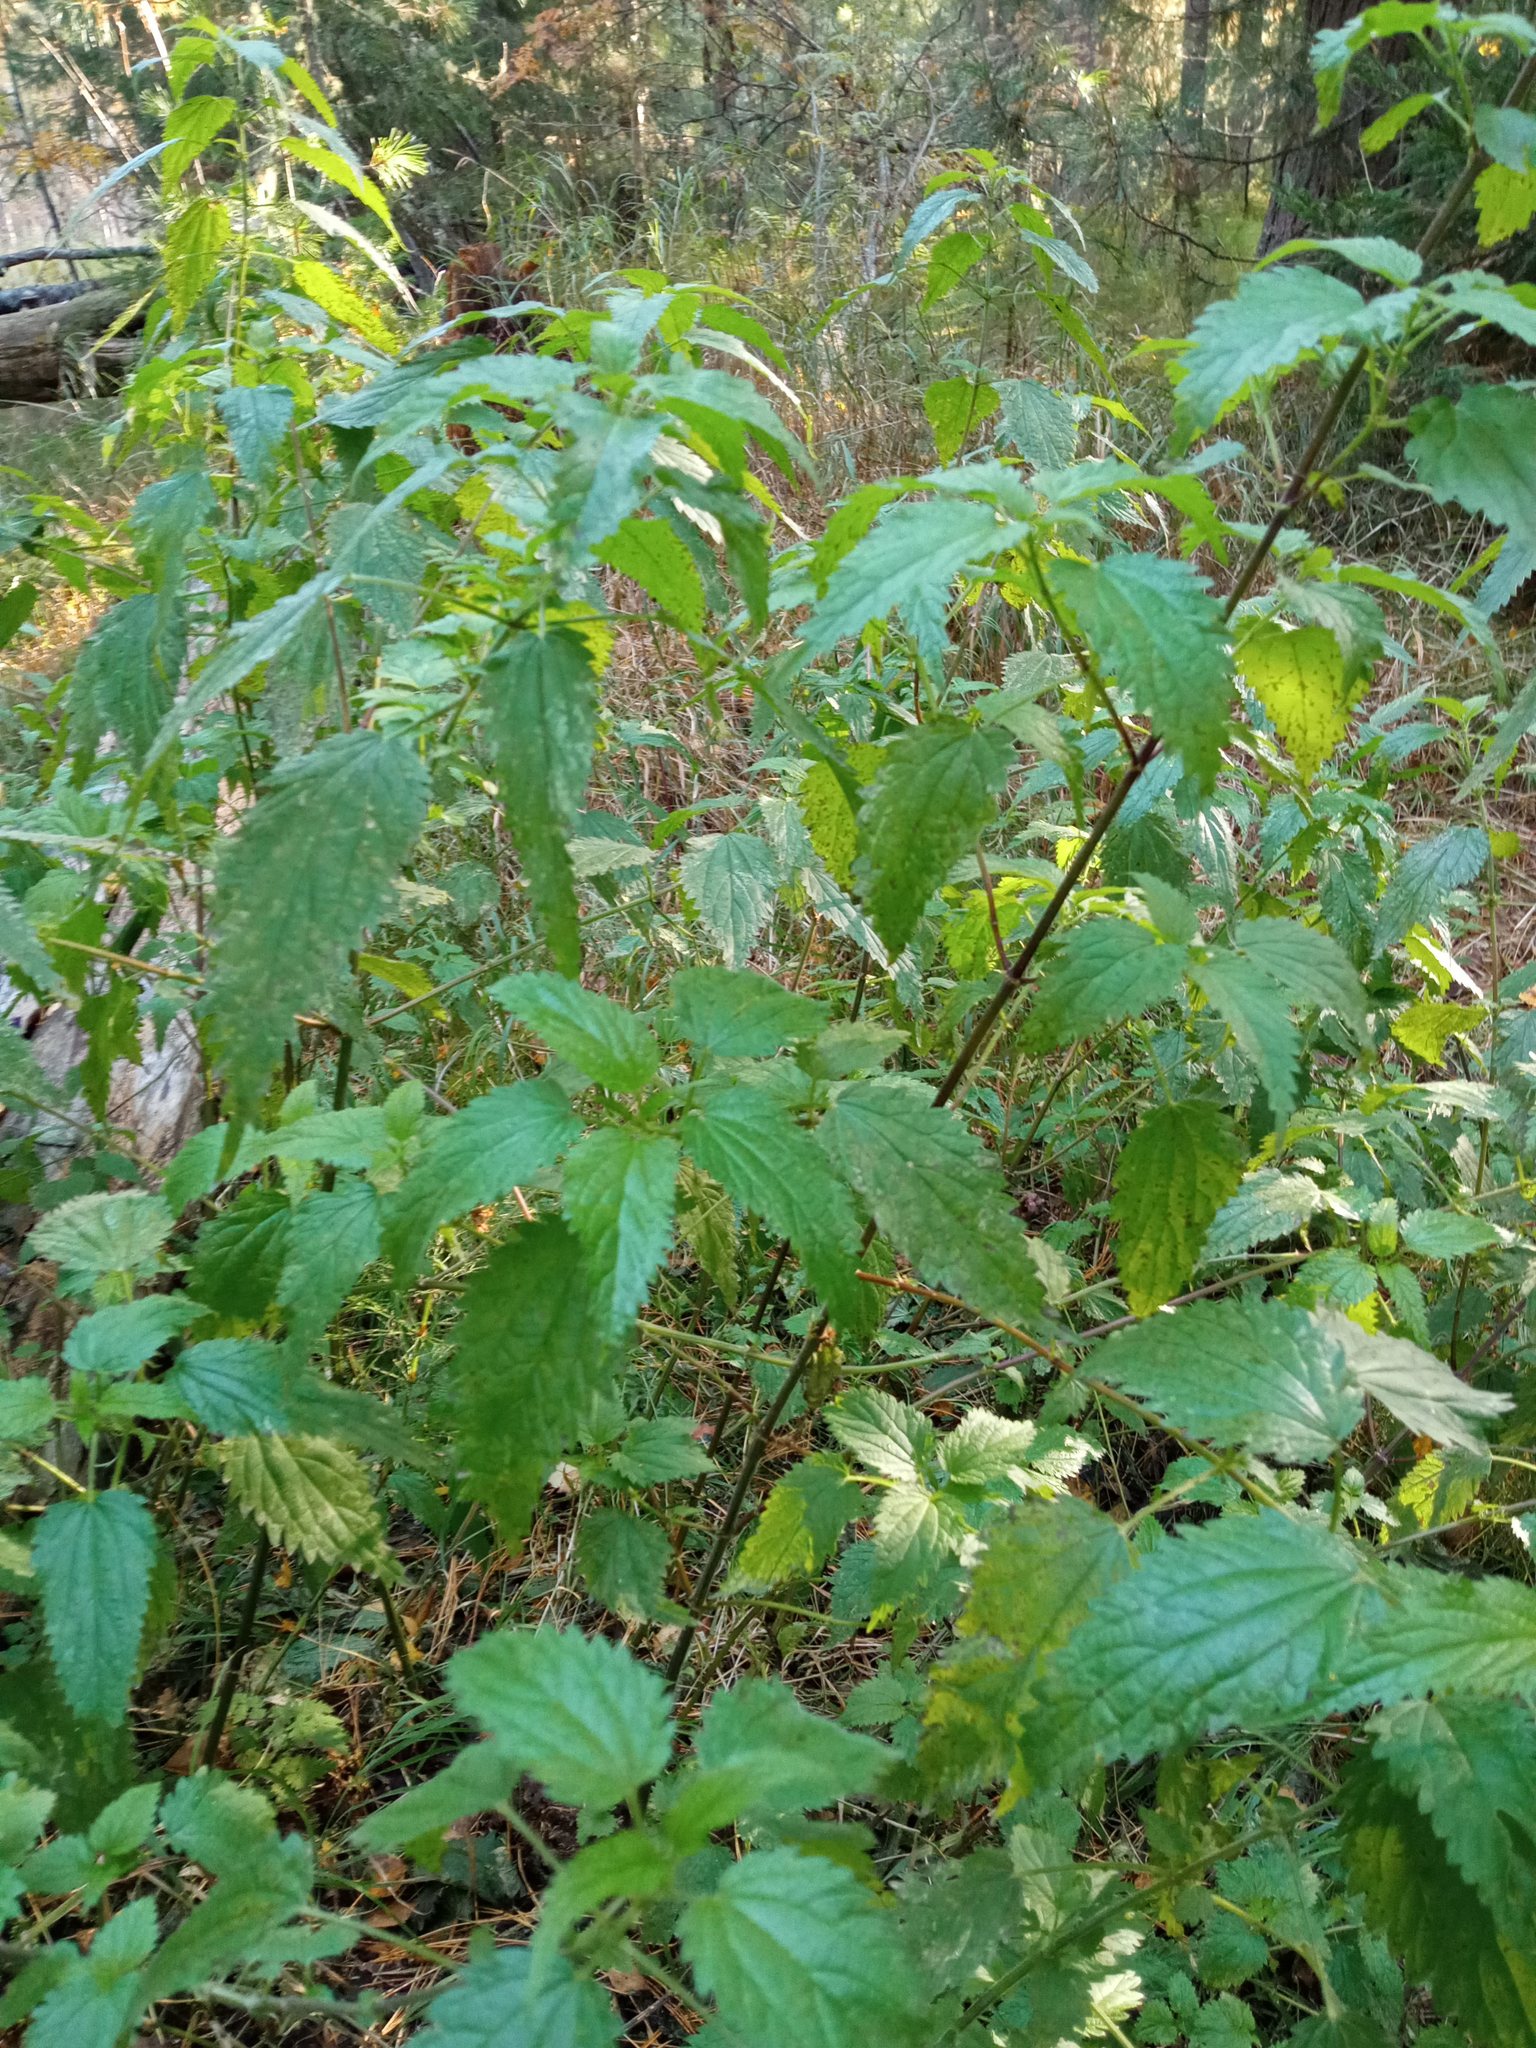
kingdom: Plantae
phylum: Tracheophyta
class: Magnoliopsida
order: Rosales
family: Urticaceae
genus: Urtica
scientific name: Urtica dioica
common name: Common nettle
